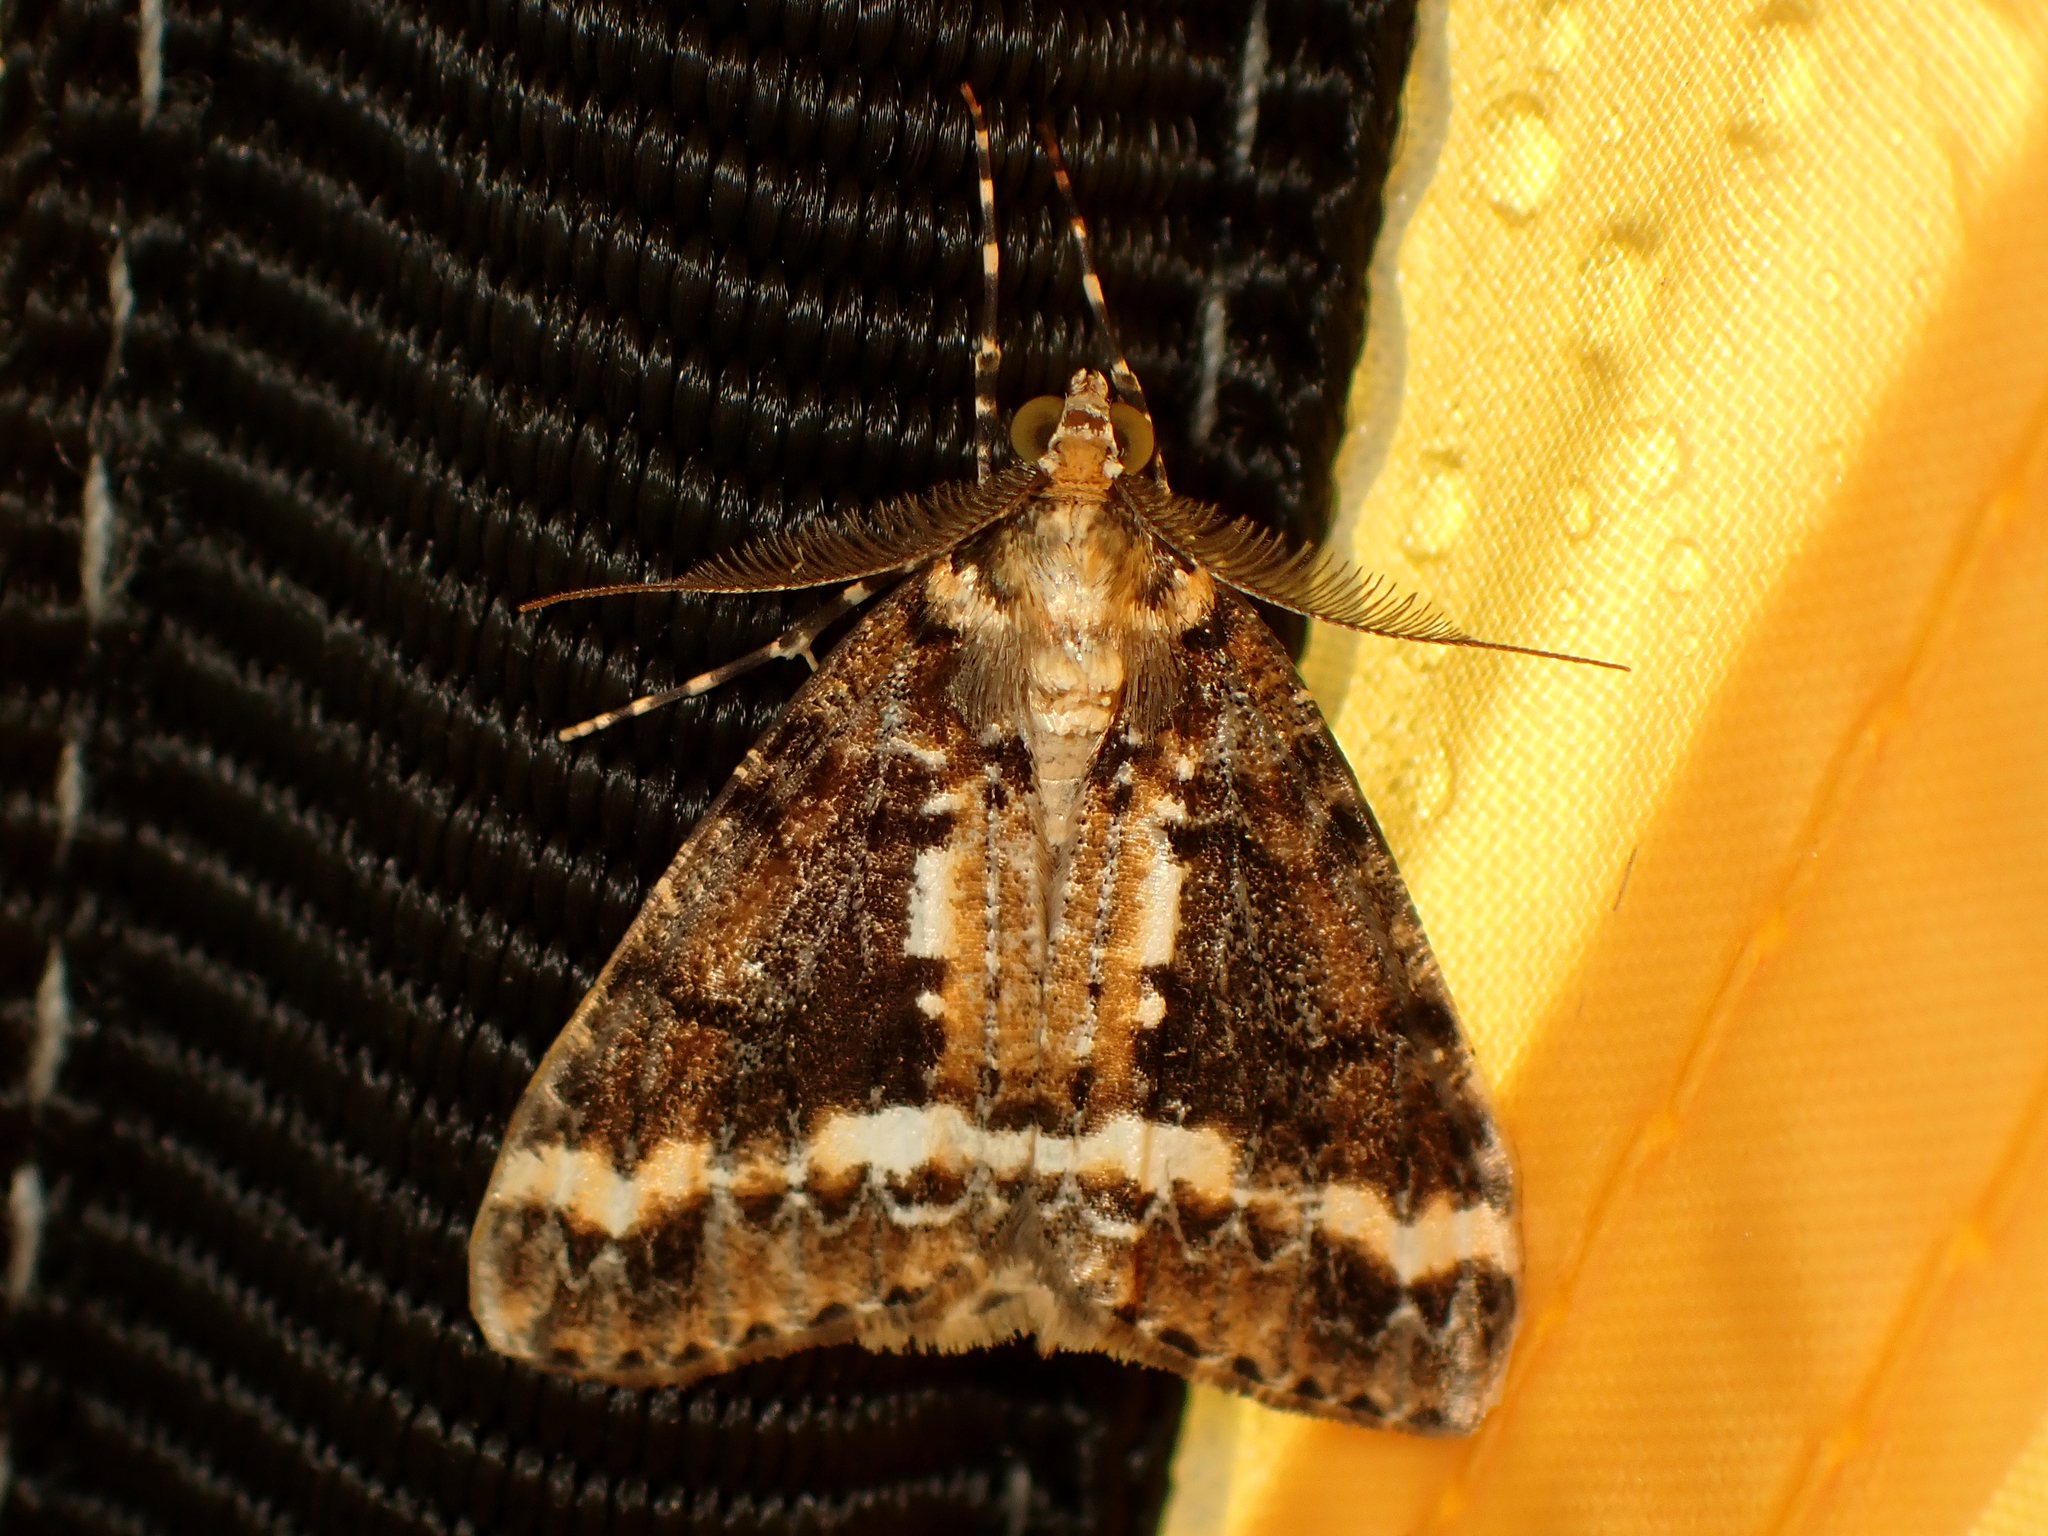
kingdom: Animalia
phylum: Arthropoda
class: Insecta
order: Lepidoptera
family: Geometridae
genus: Pseudocoremia
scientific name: Pseudocoremia leucelaea
